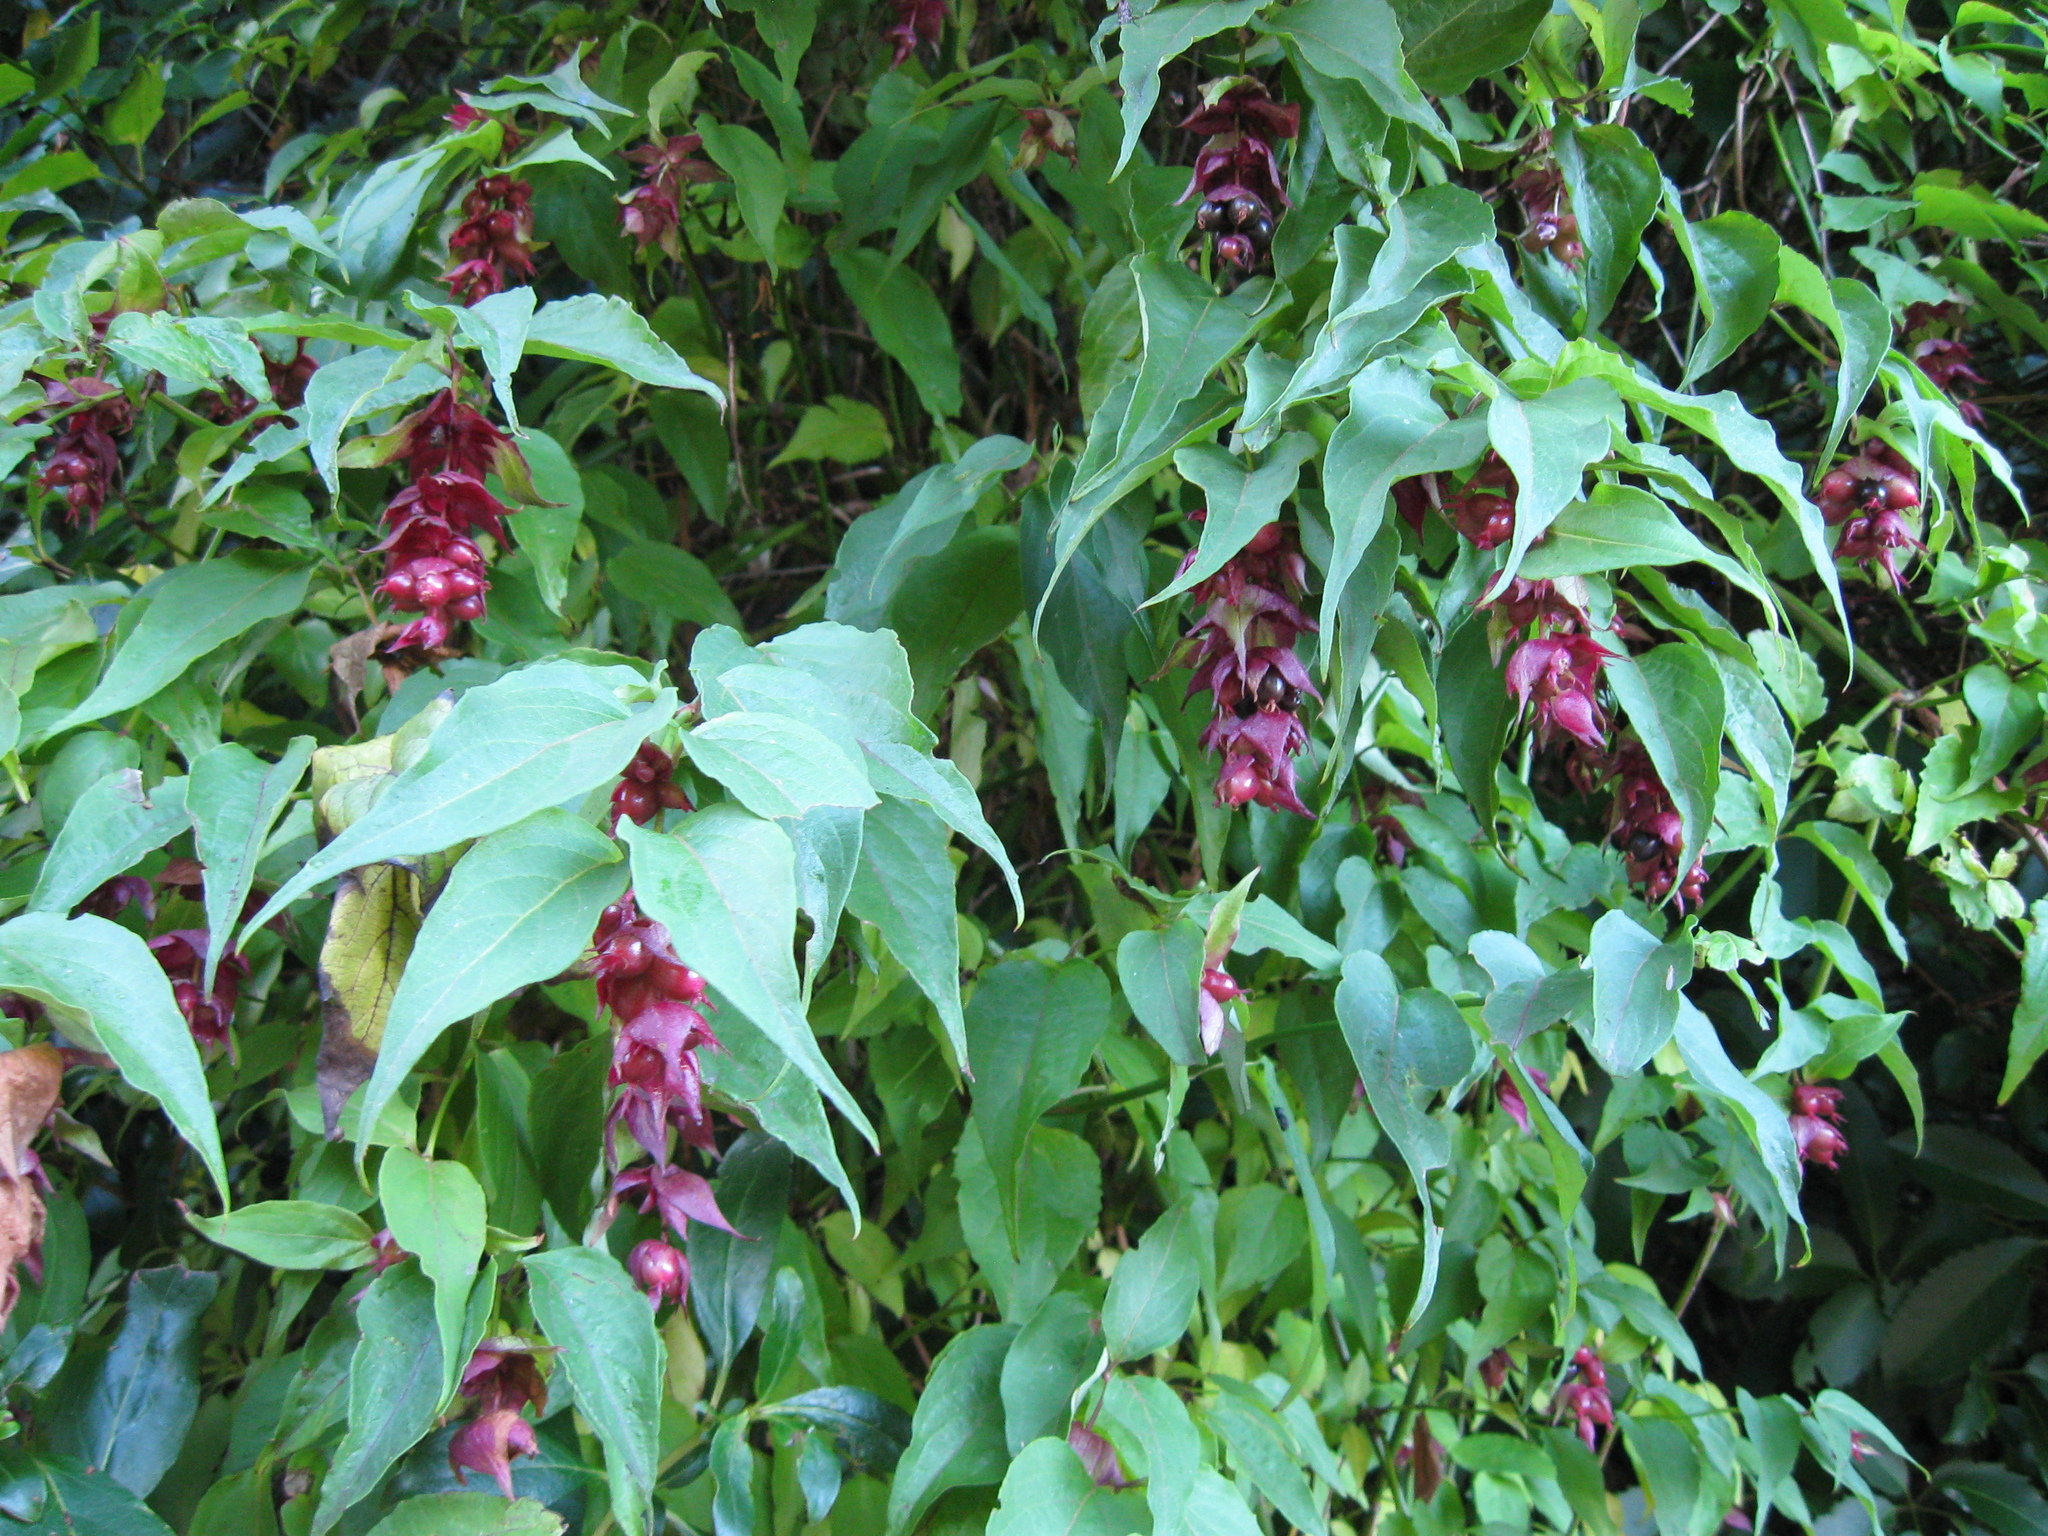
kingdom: Plantae
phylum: Tracheophyta
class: Magnoliopsida
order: Dipsacales
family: Caprifoliaceae
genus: Leycesteria
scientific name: Leycesteria formosa
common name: Himalayan honeysuckle
